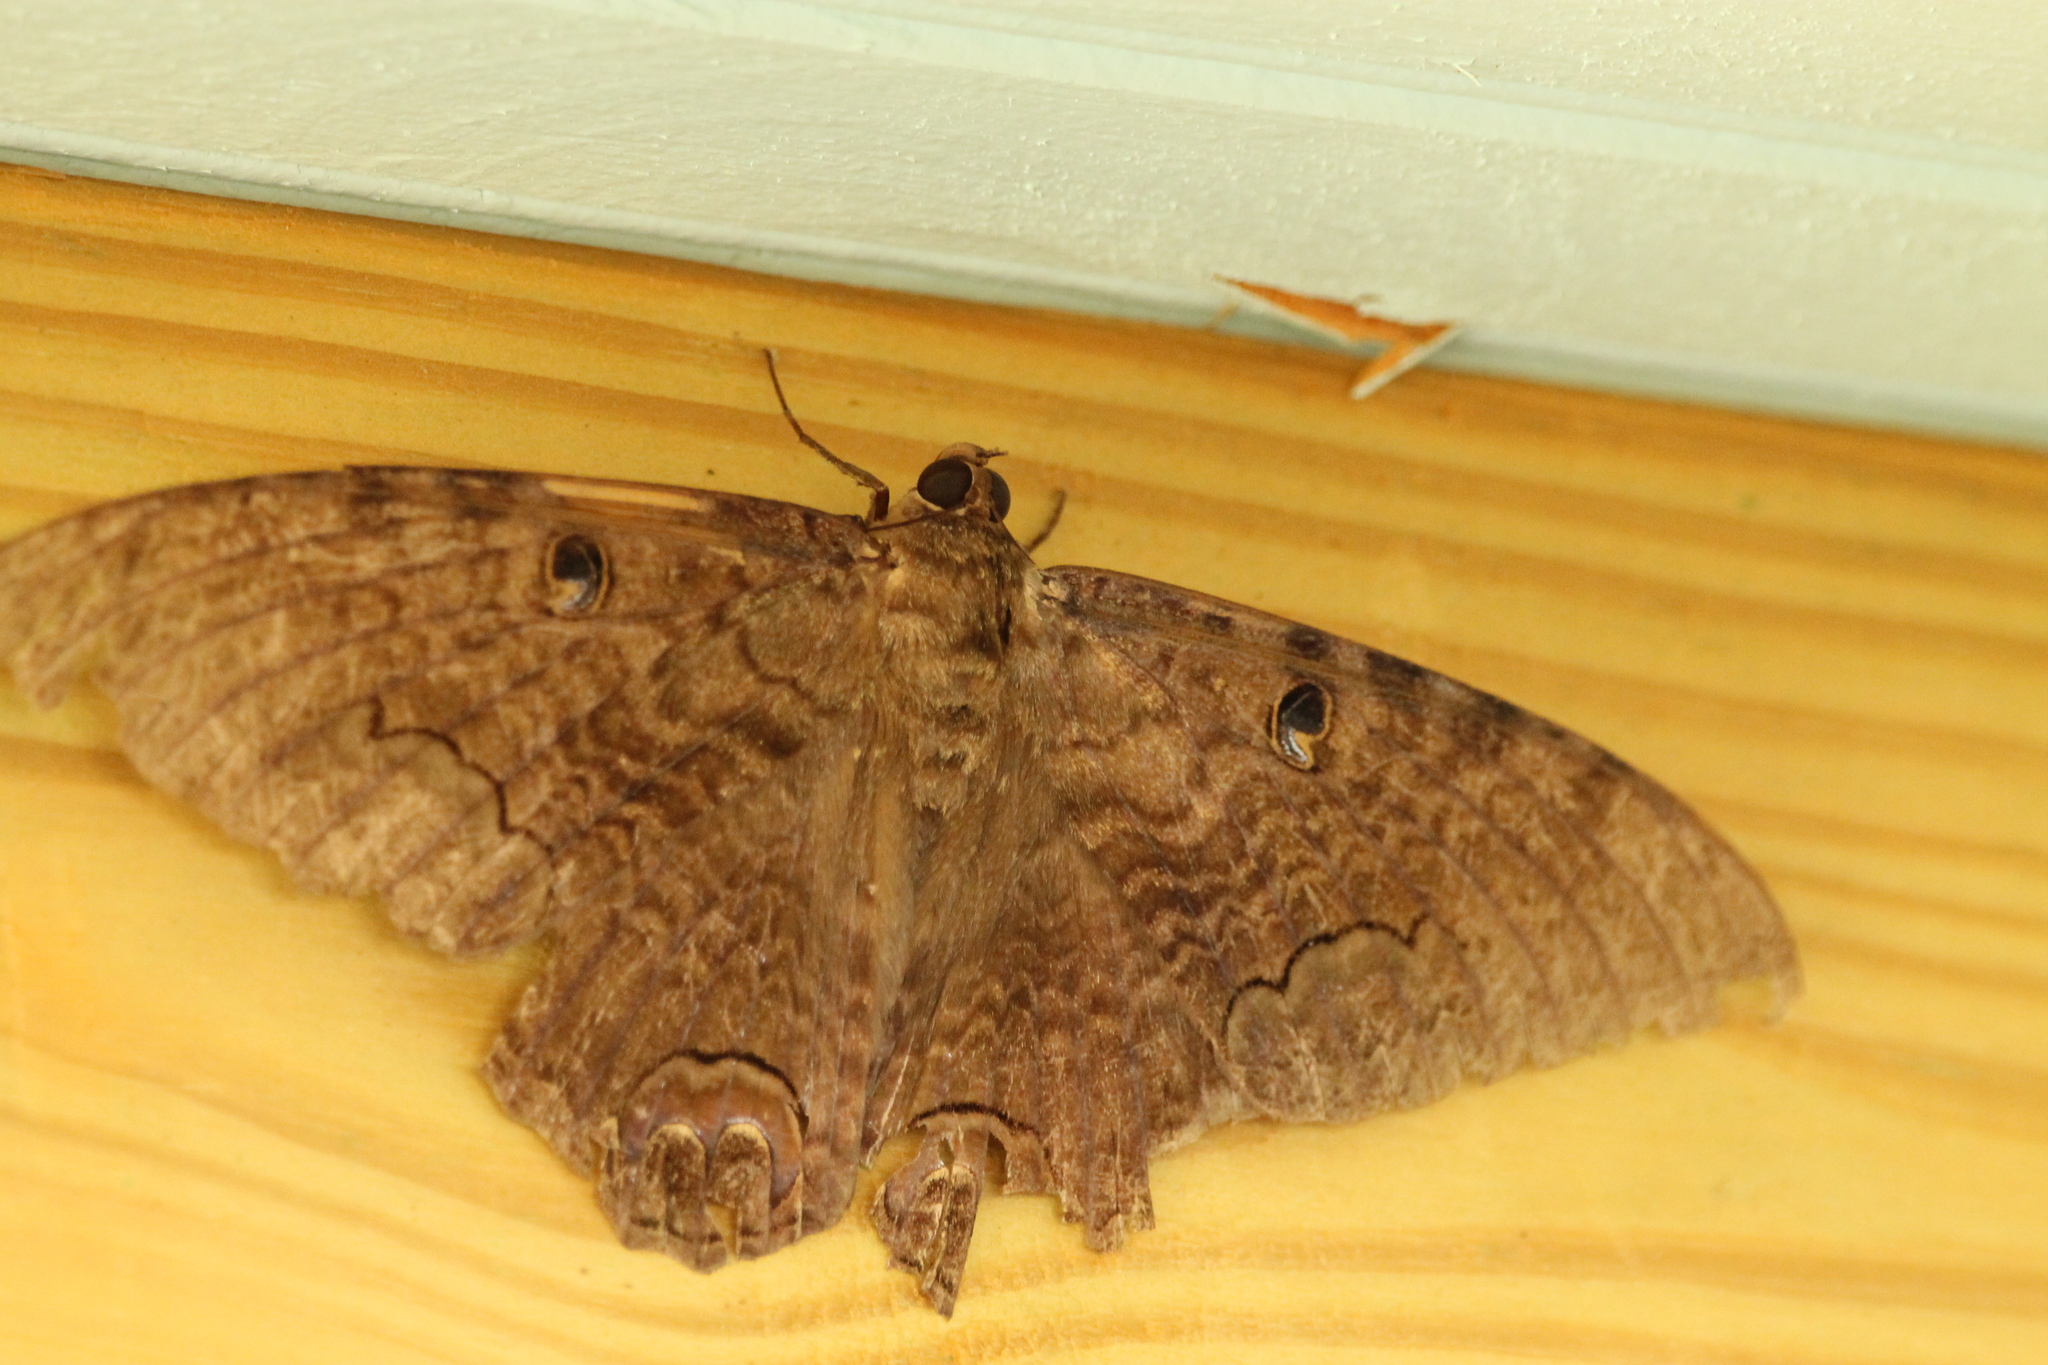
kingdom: Animalia
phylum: Arthropoda
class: Insecta
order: Lepidoptera
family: Erebidae
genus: Ascalapha
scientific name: Ascalapha odorata
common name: Black witch
